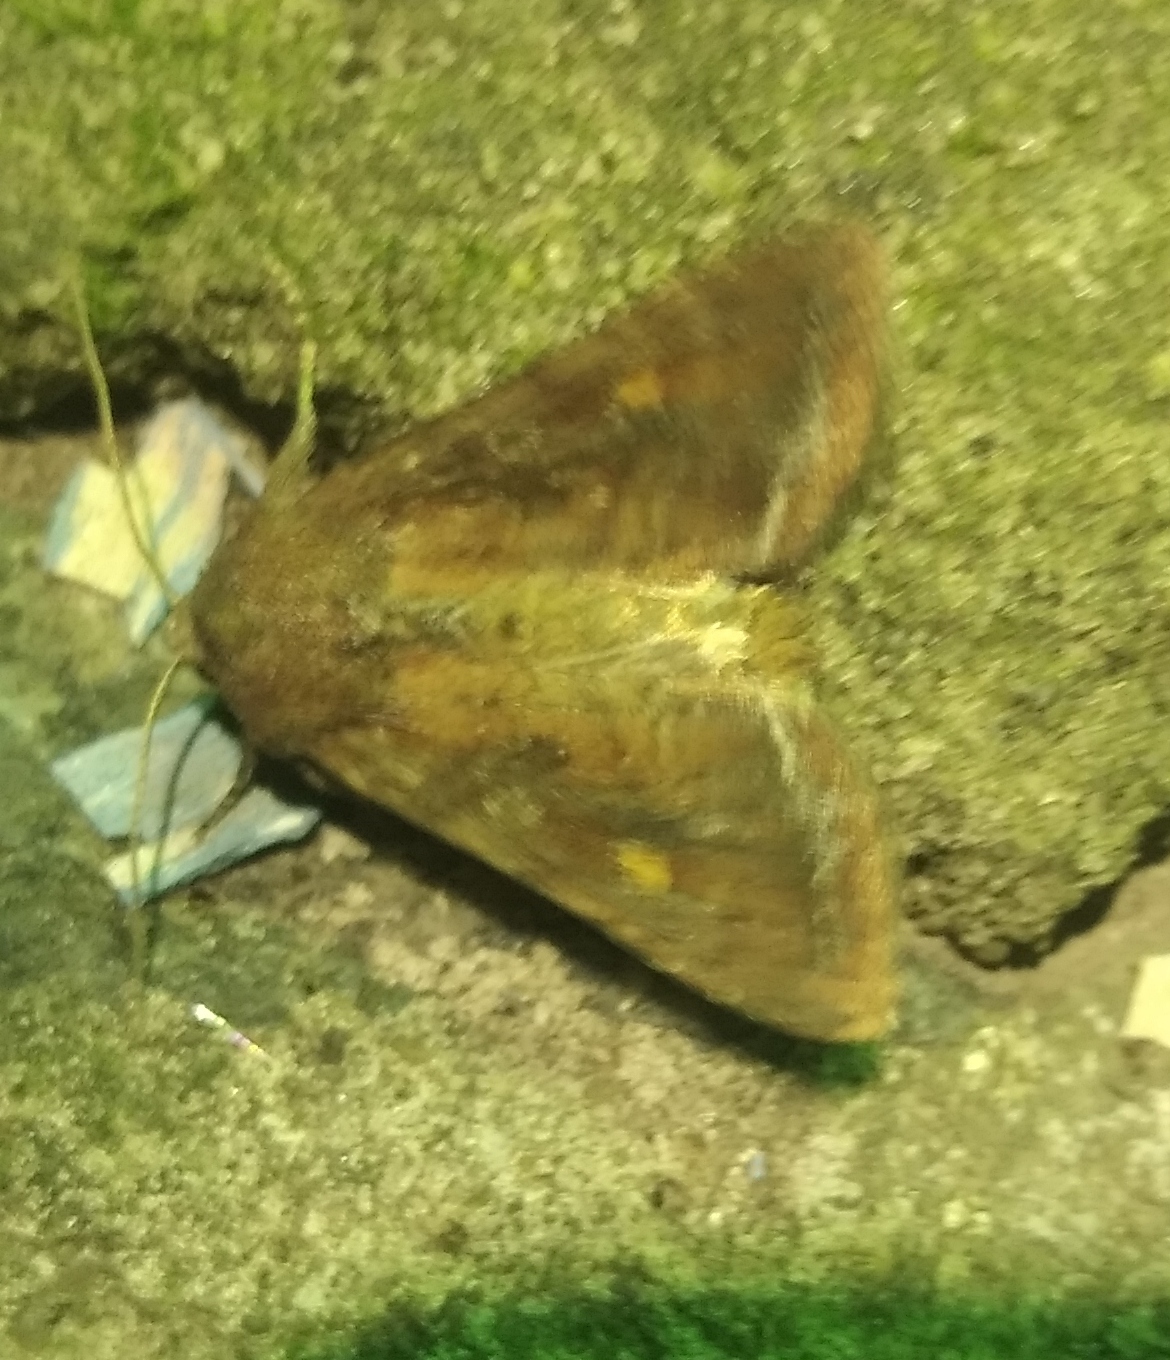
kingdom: Animalia
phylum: Arthropoda
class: Insecta
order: Lepidoptera
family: Noctuidae
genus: Lacanobia
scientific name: Lacanobia oleracea
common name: Bright-line brown-eye
